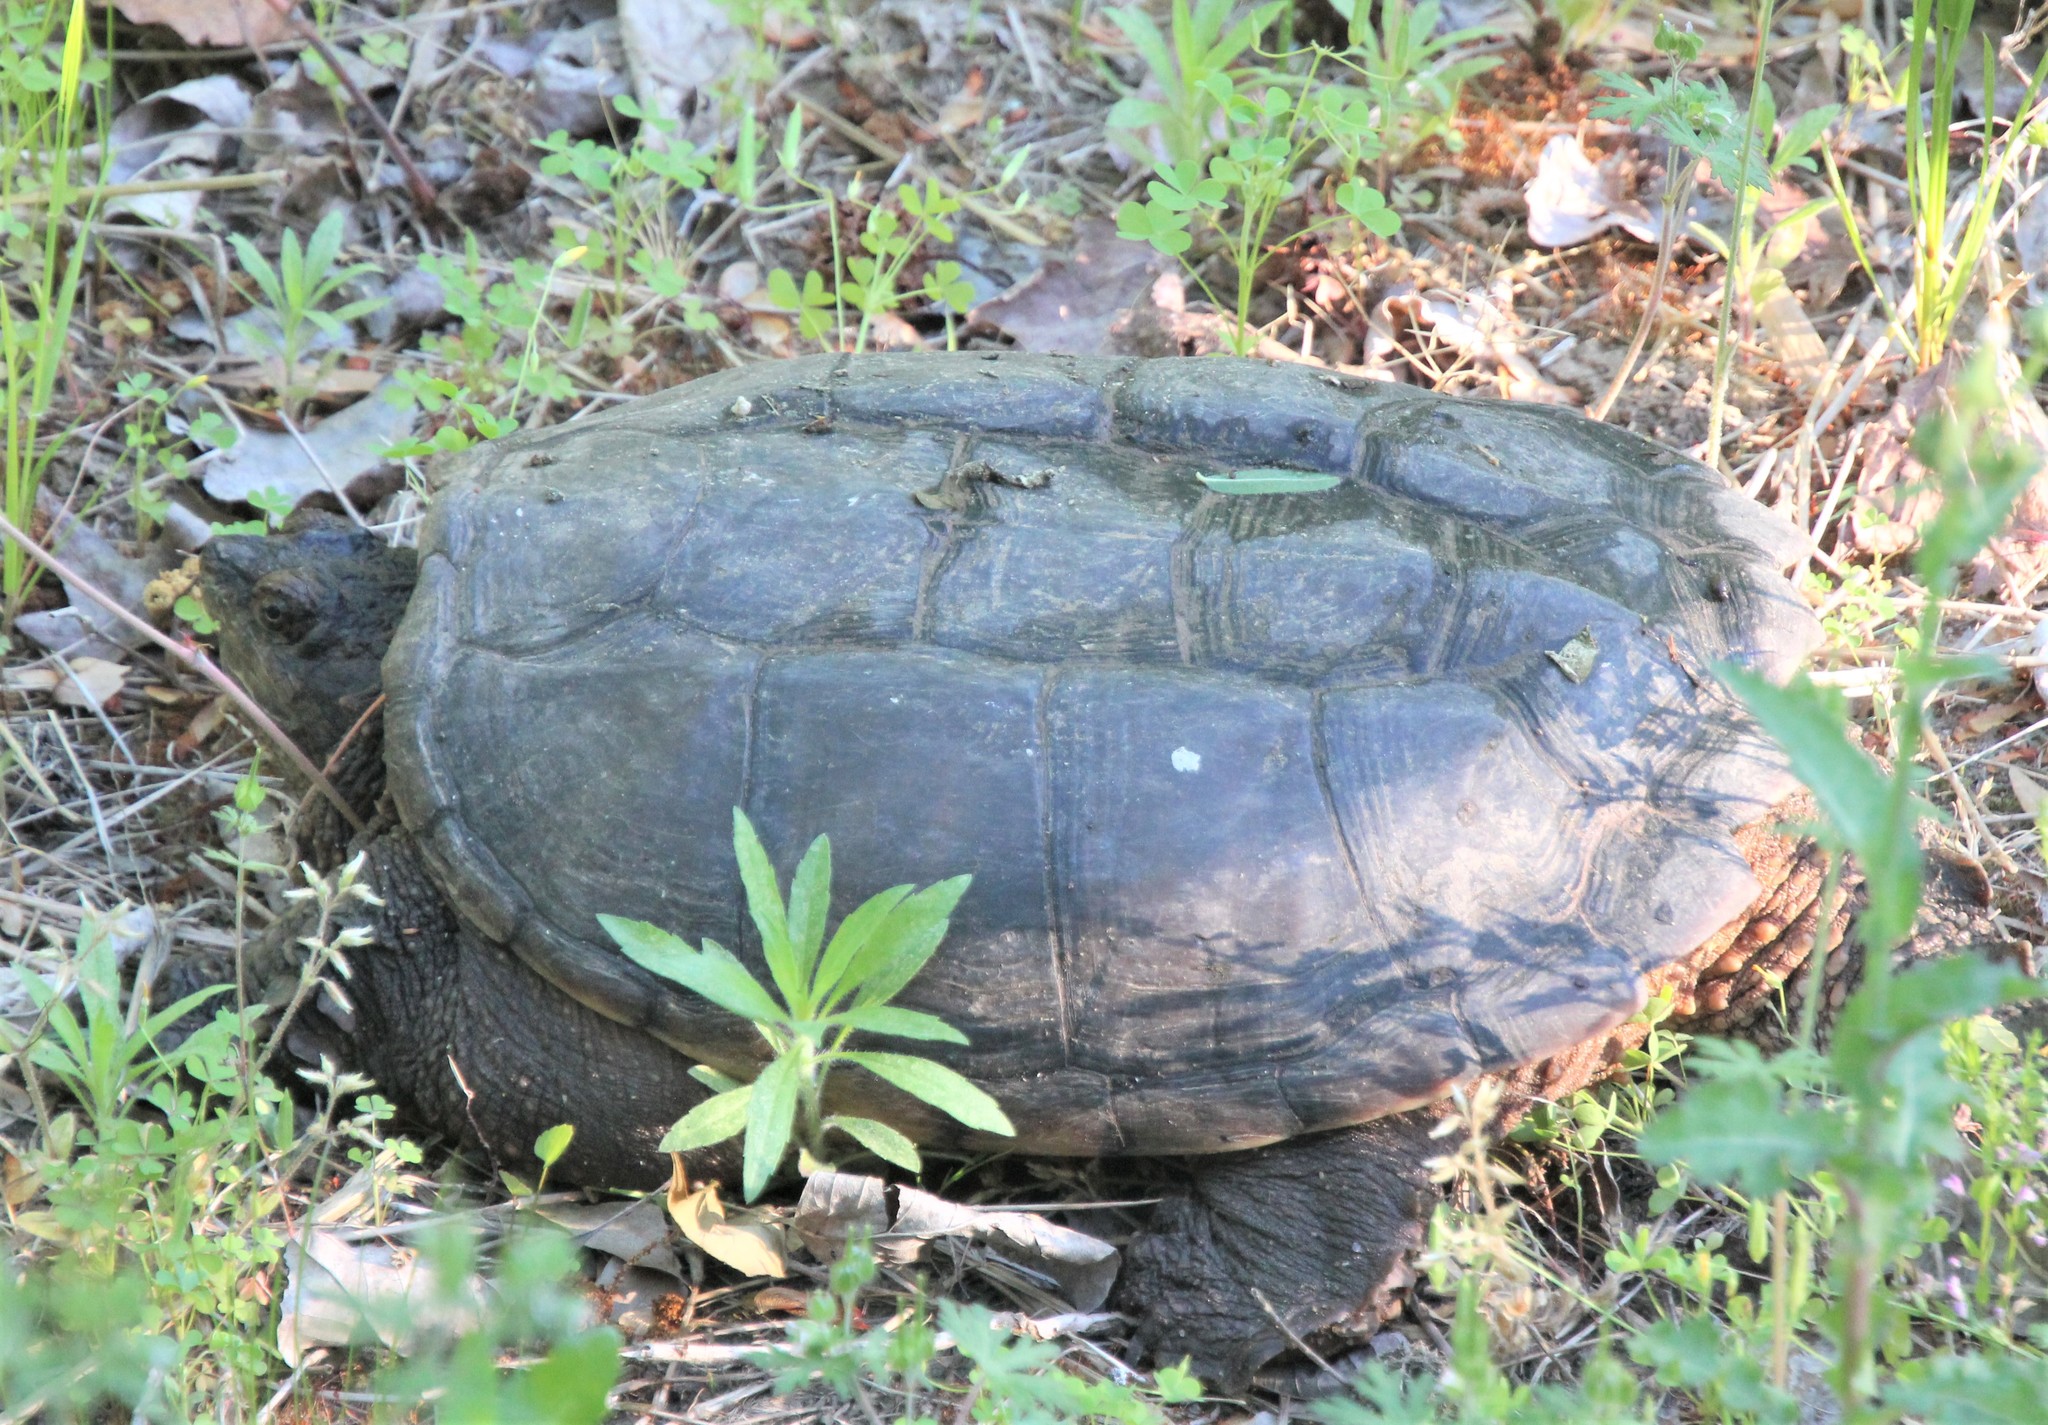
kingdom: Animalia
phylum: Chordata
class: Testudines
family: Chelydridae
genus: Chelydra
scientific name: Chelydra serpentina
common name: Common snapping turtle
